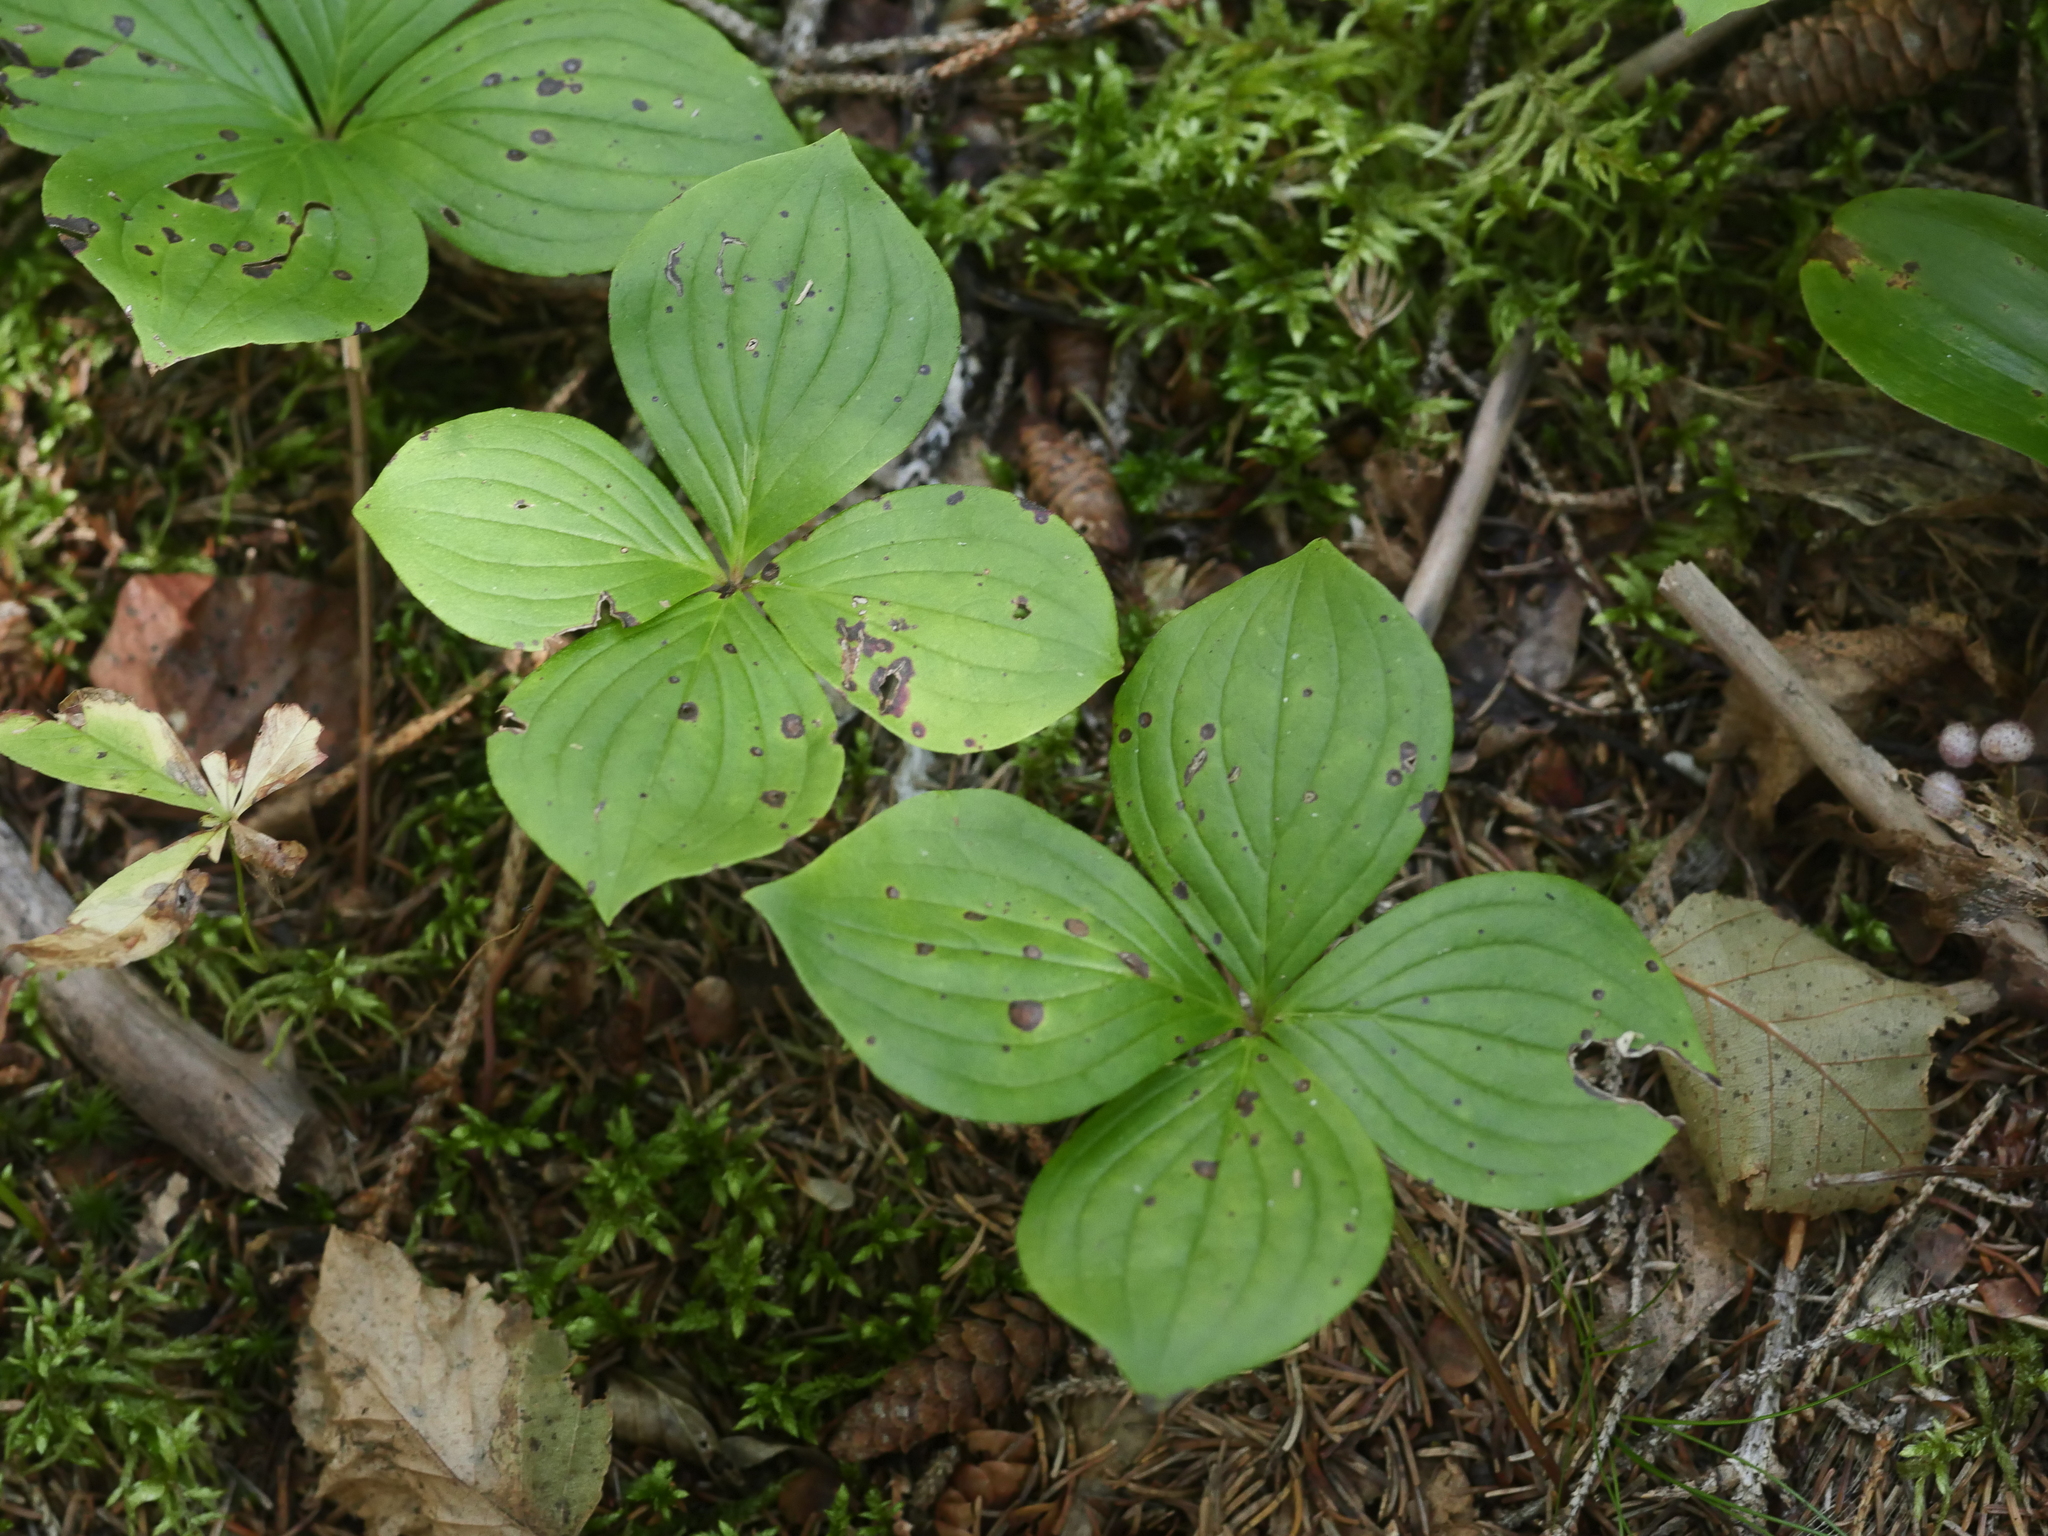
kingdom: Plantae
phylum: Tracheophyta
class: Magnoliopsida
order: Cornales
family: Cornaceae
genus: Cornus
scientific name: Cornus canadensis
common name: Creeping dogwood
